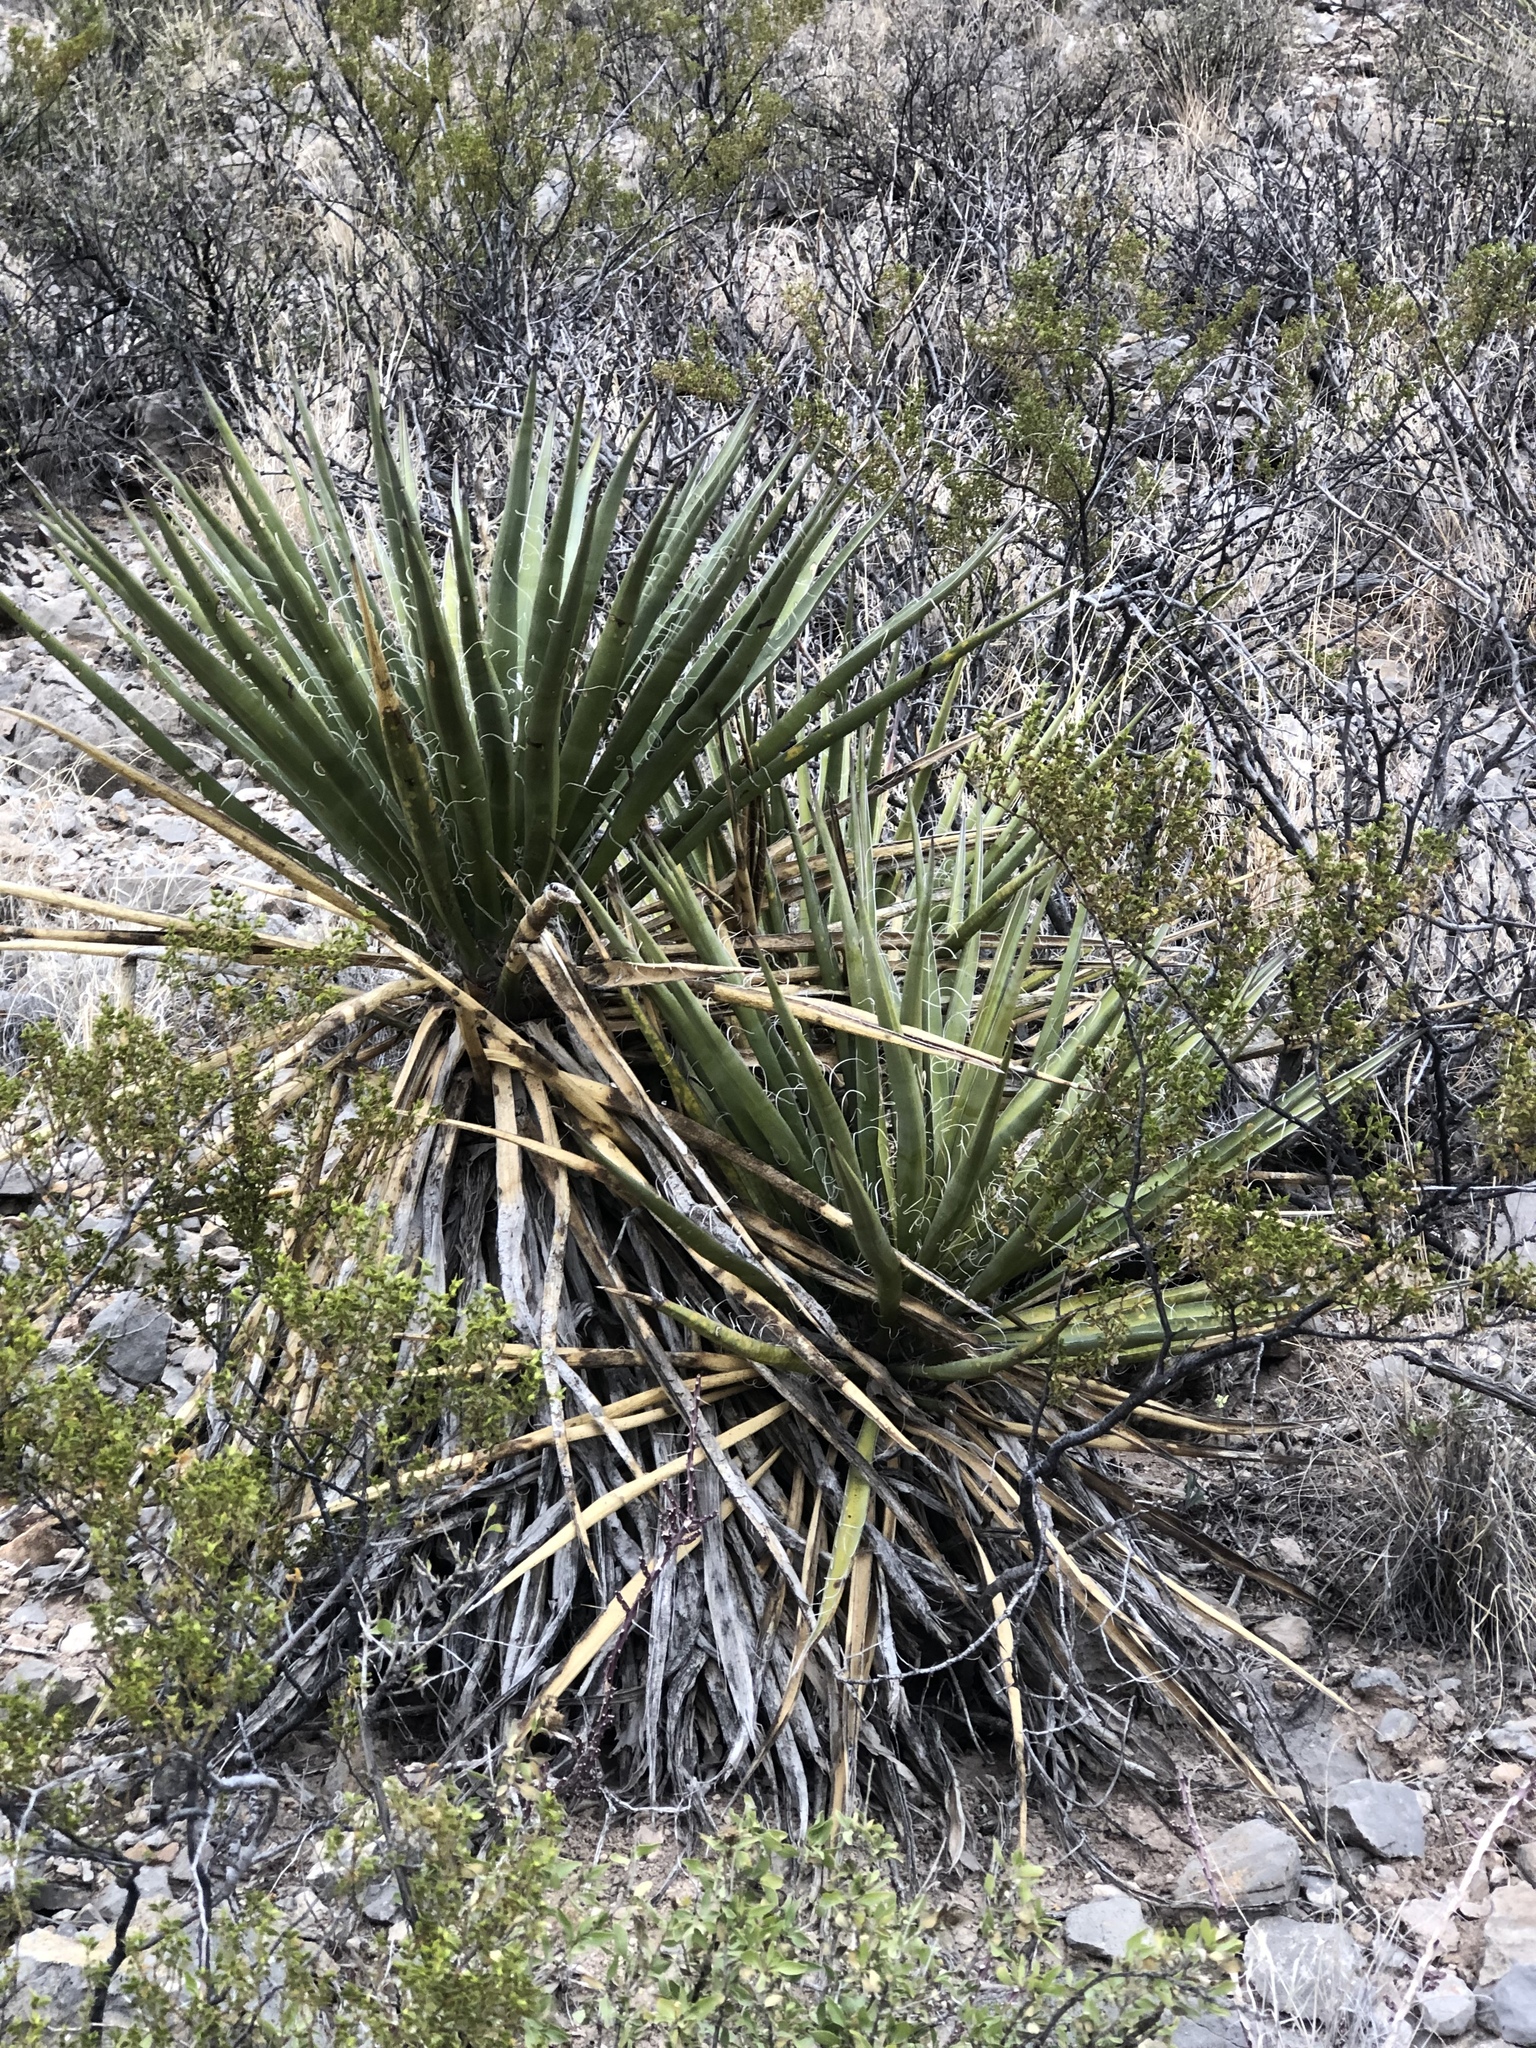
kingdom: Plantae
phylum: Tracheophyta
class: Liliopsida
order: Asparagales
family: Asparagaceae
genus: Yucca
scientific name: Yucca treculiana
